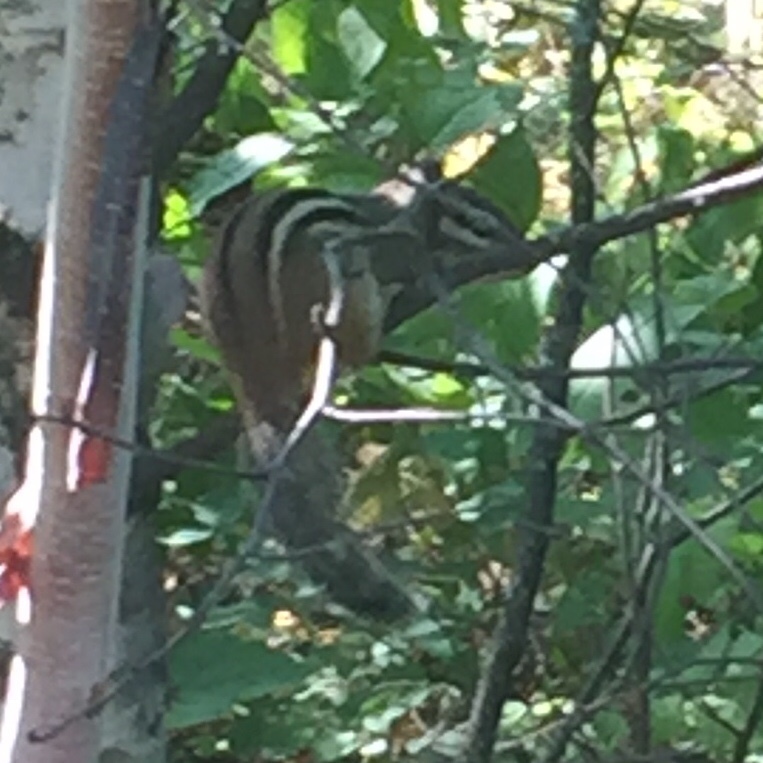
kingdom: Animalia
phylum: Chordata
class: Mammalia
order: Rodentia
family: Sciuridae
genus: Tamias
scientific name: Tamias striatus
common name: Eastern chipmunk
